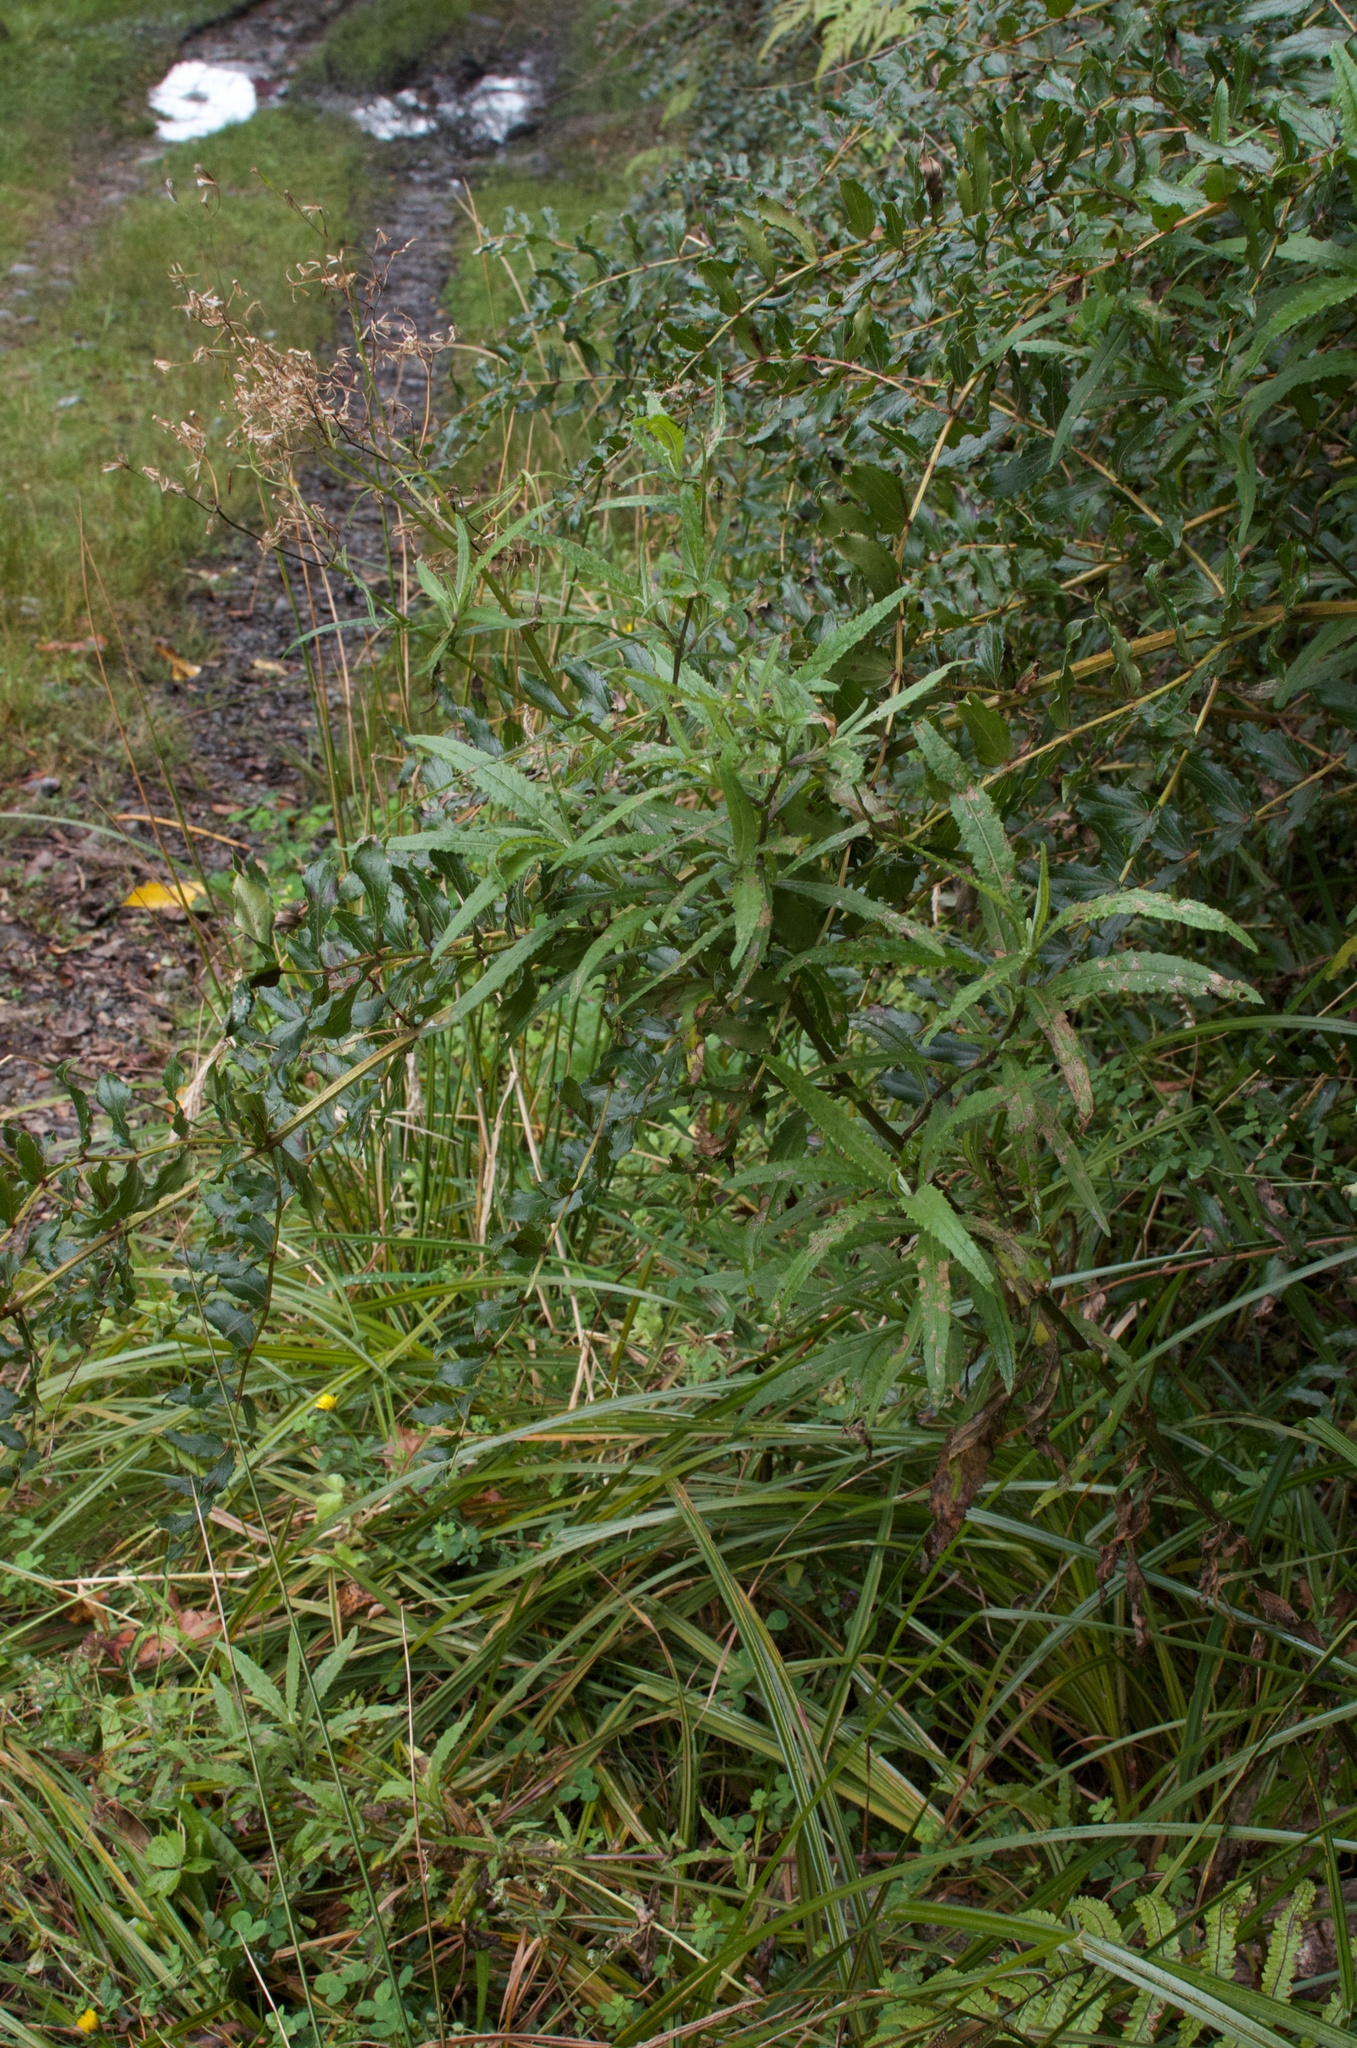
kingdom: Plantae
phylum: Tracheophyta
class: Magnoliopsida
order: Asterales
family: Asteraceae
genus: Senecio
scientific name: Senecio minimus
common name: Toothed fireweed
